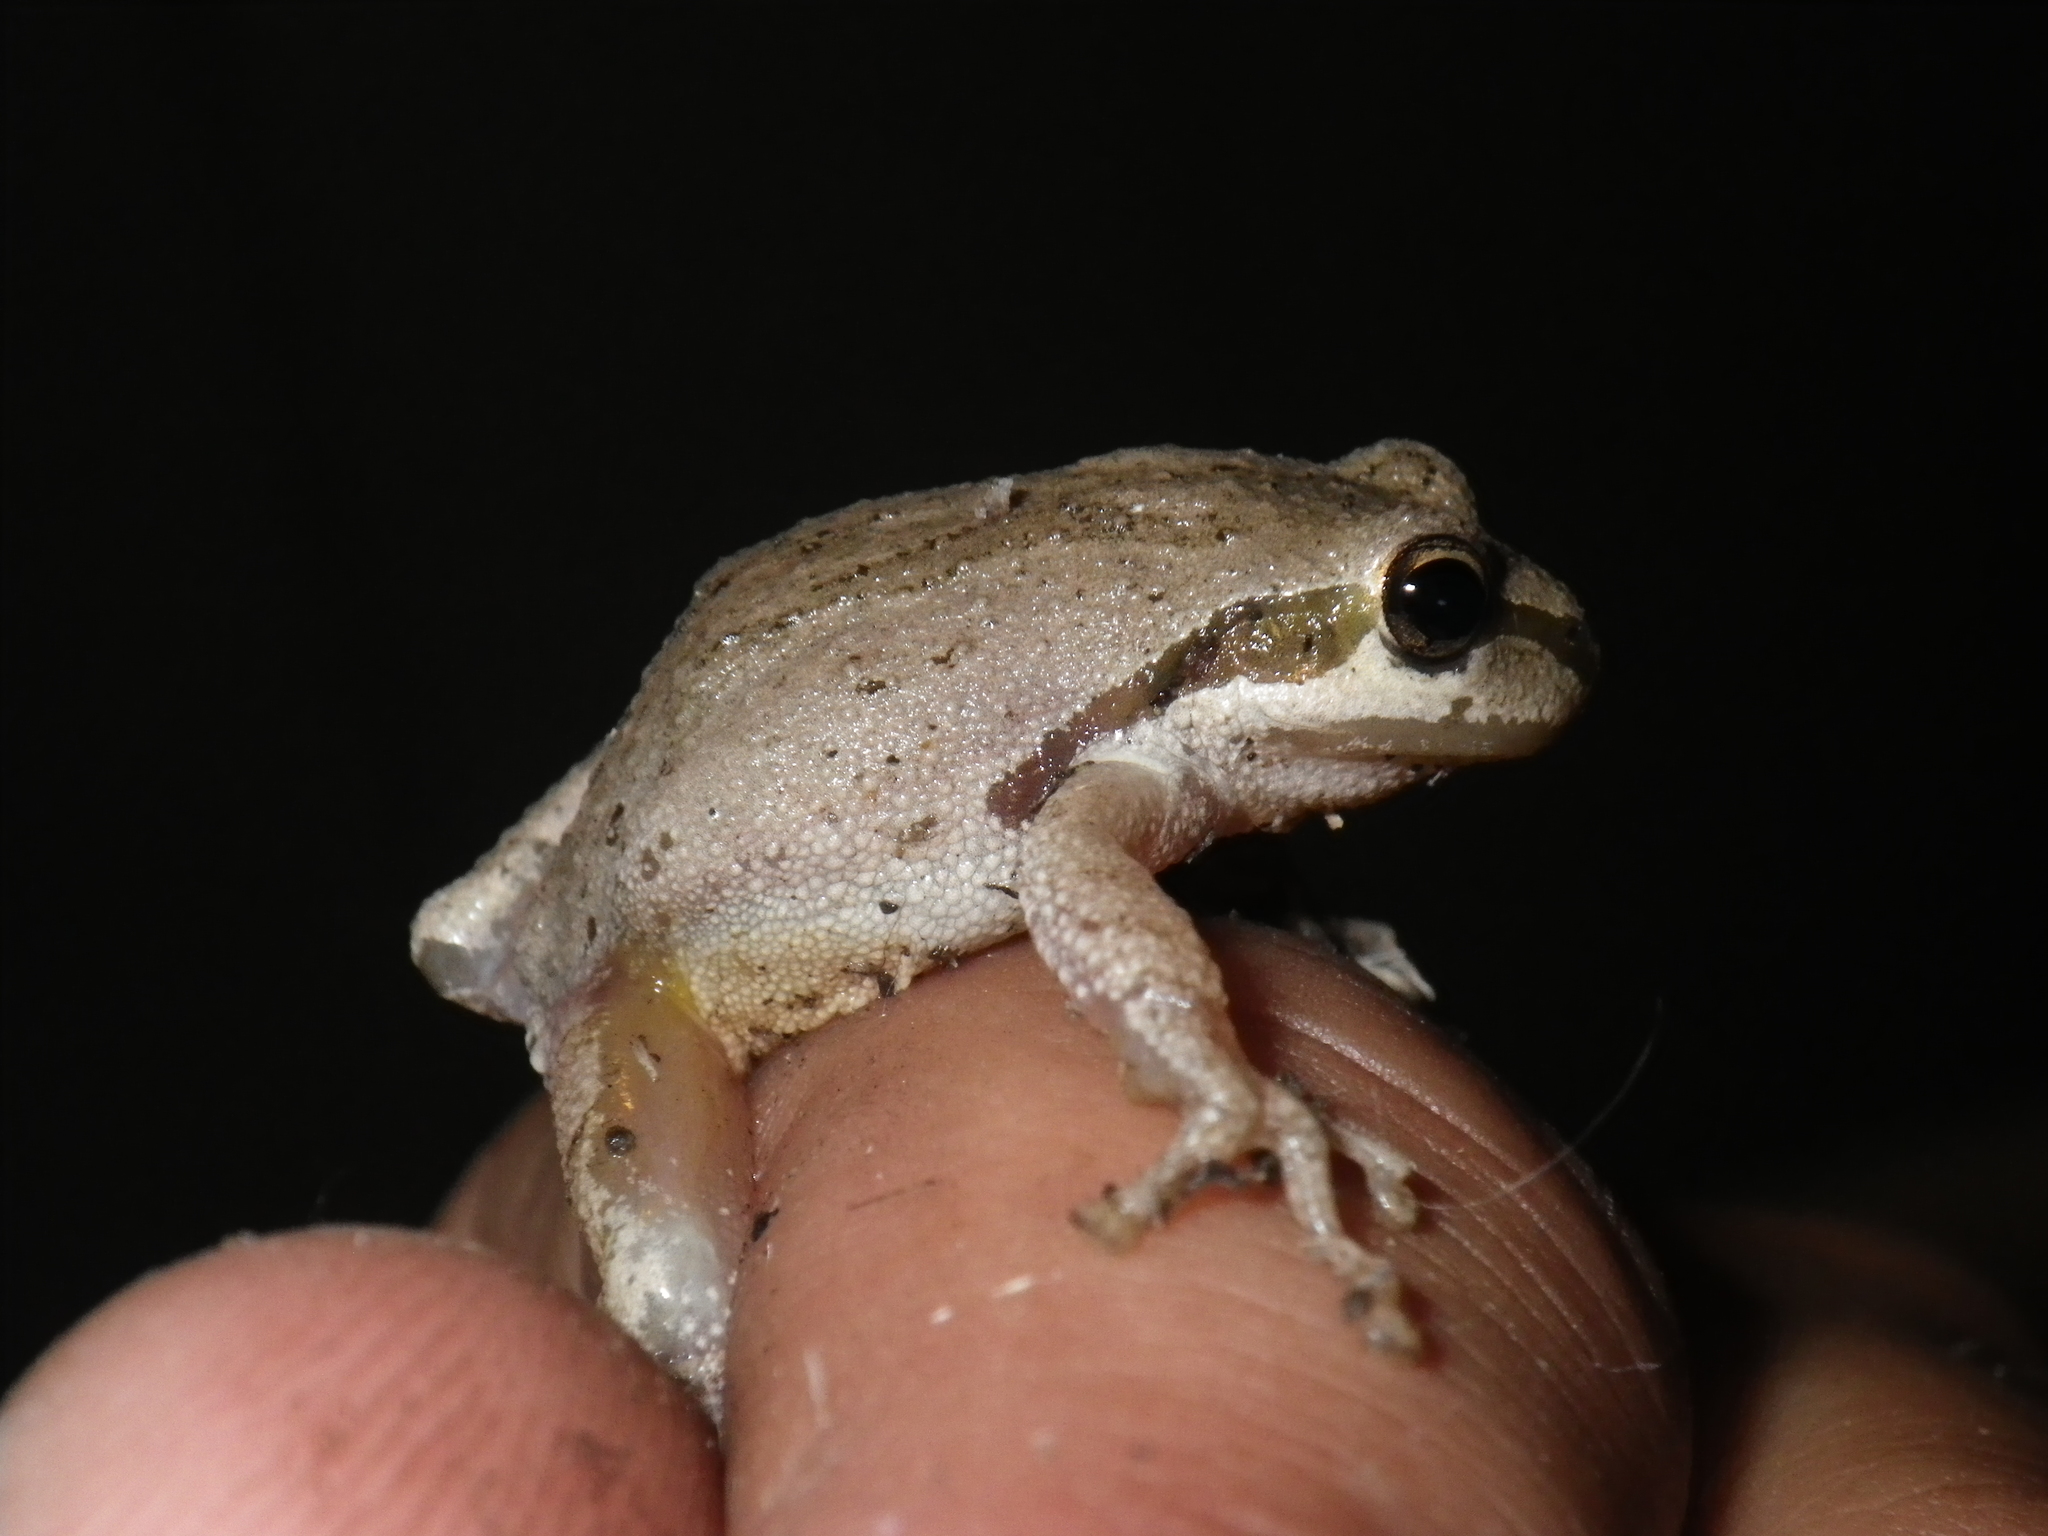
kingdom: Animalia
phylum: Chordata
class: Amphibia
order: Anura
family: Hylidae
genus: Pseudacris
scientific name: Pseudacris regilla
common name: Pacific chorus frog
